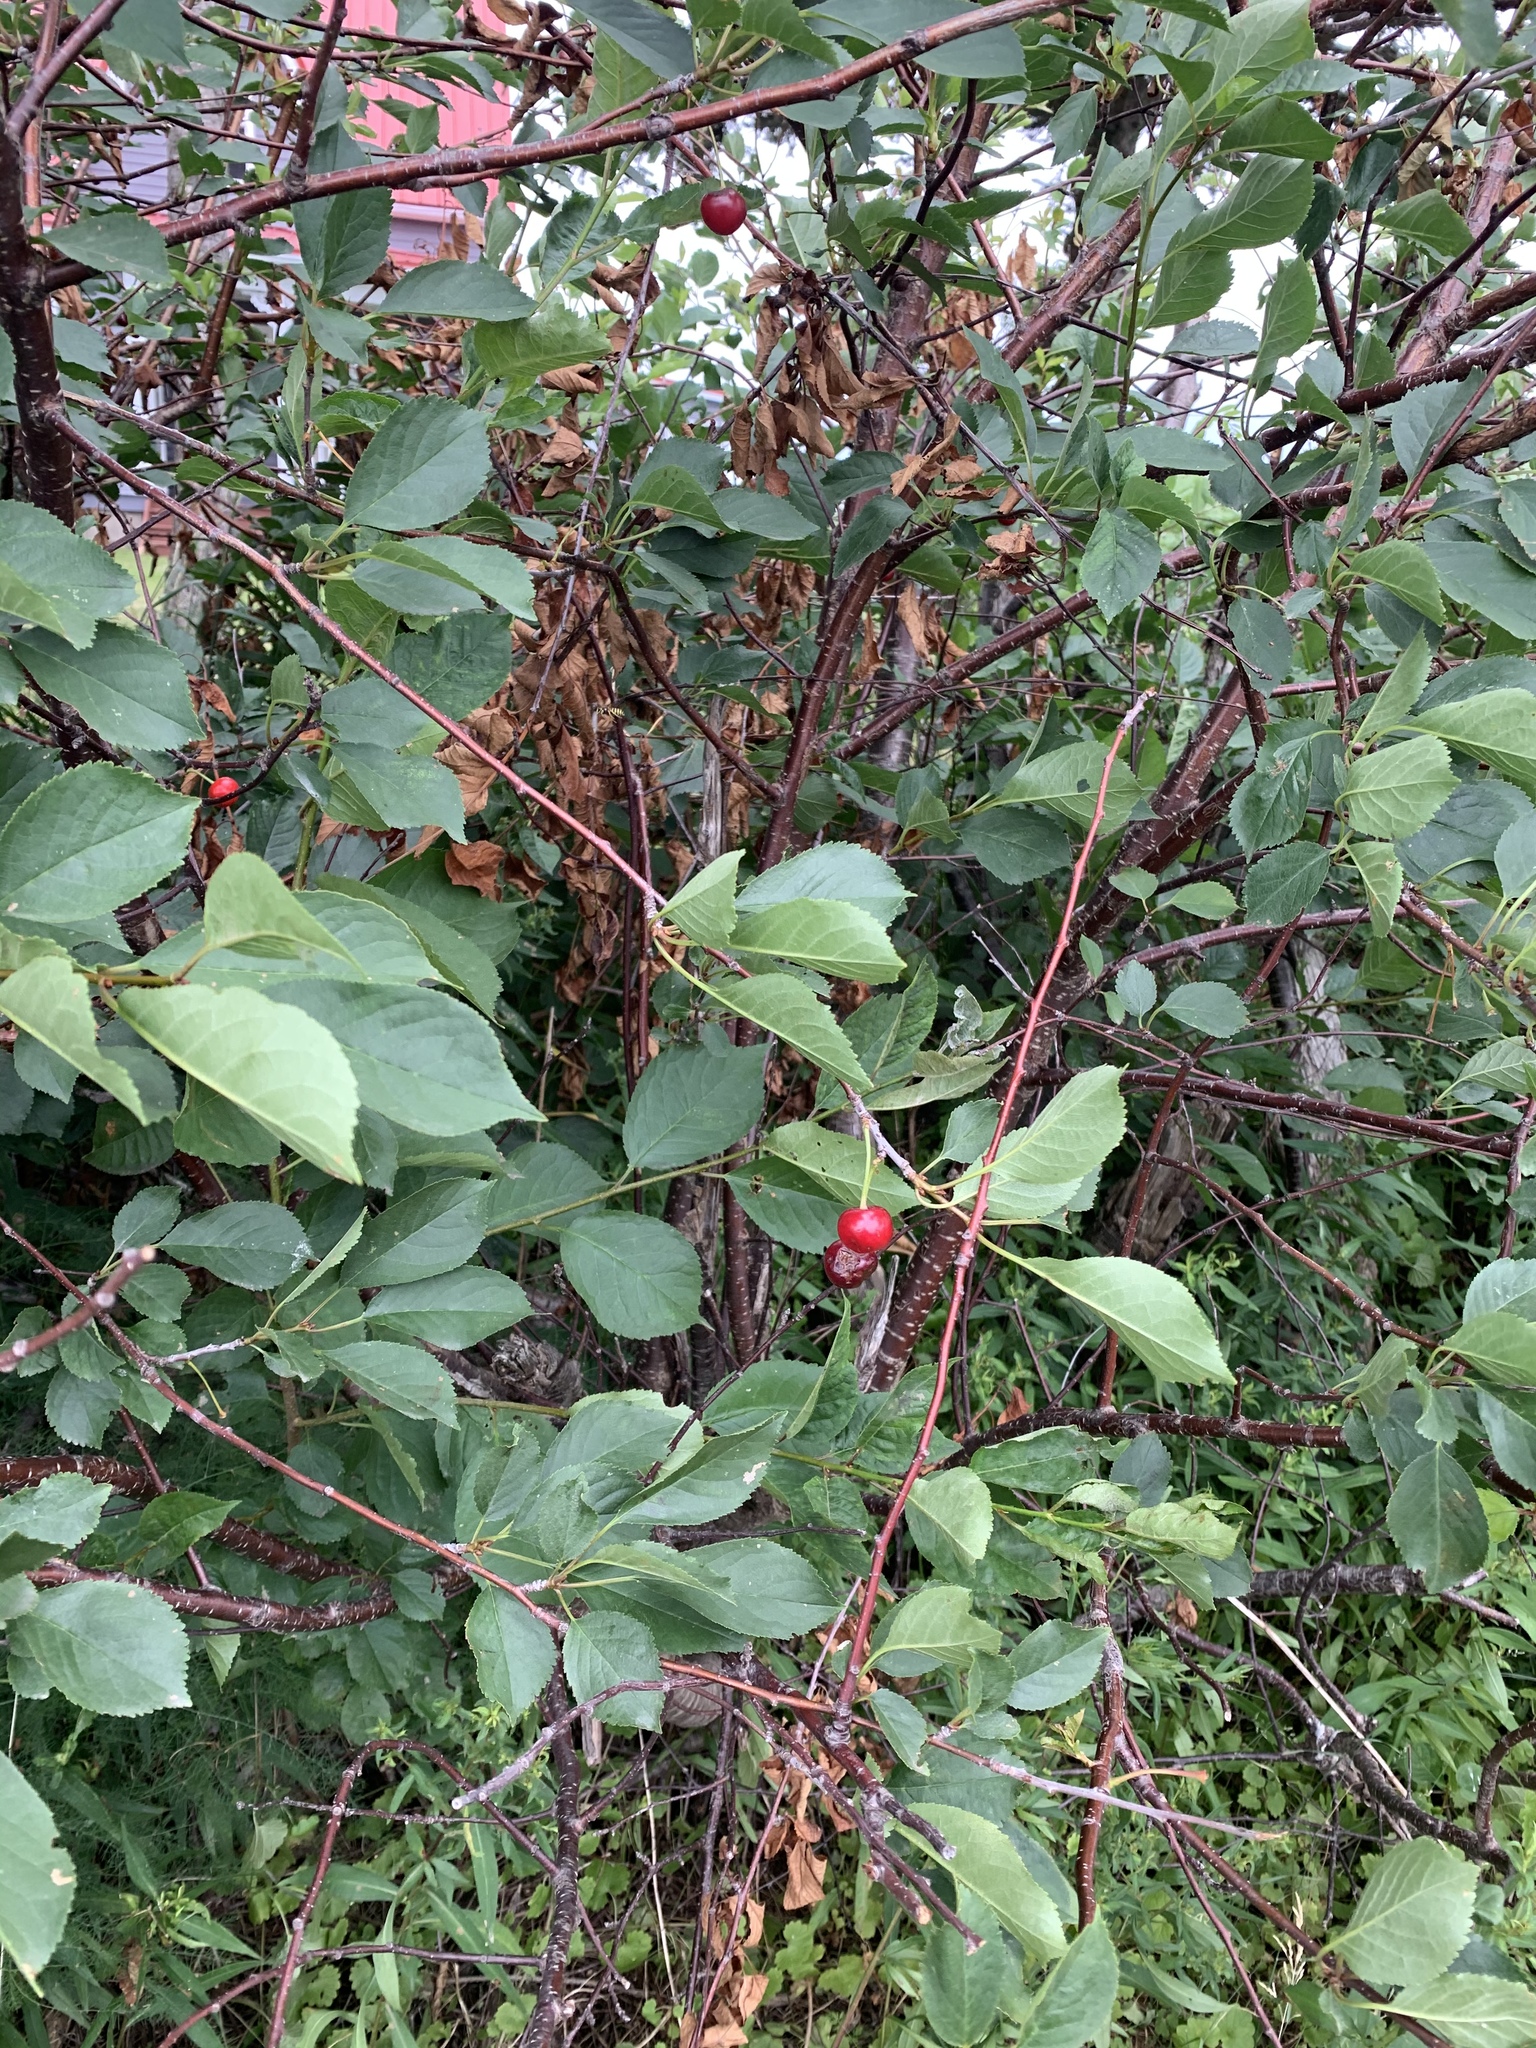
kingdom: Plantae
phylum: Tracheophyta
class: Magnoliopsida
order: Rosales
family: Rosaceae
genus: Prunus
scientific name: Prunus nigra
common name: Black plum
